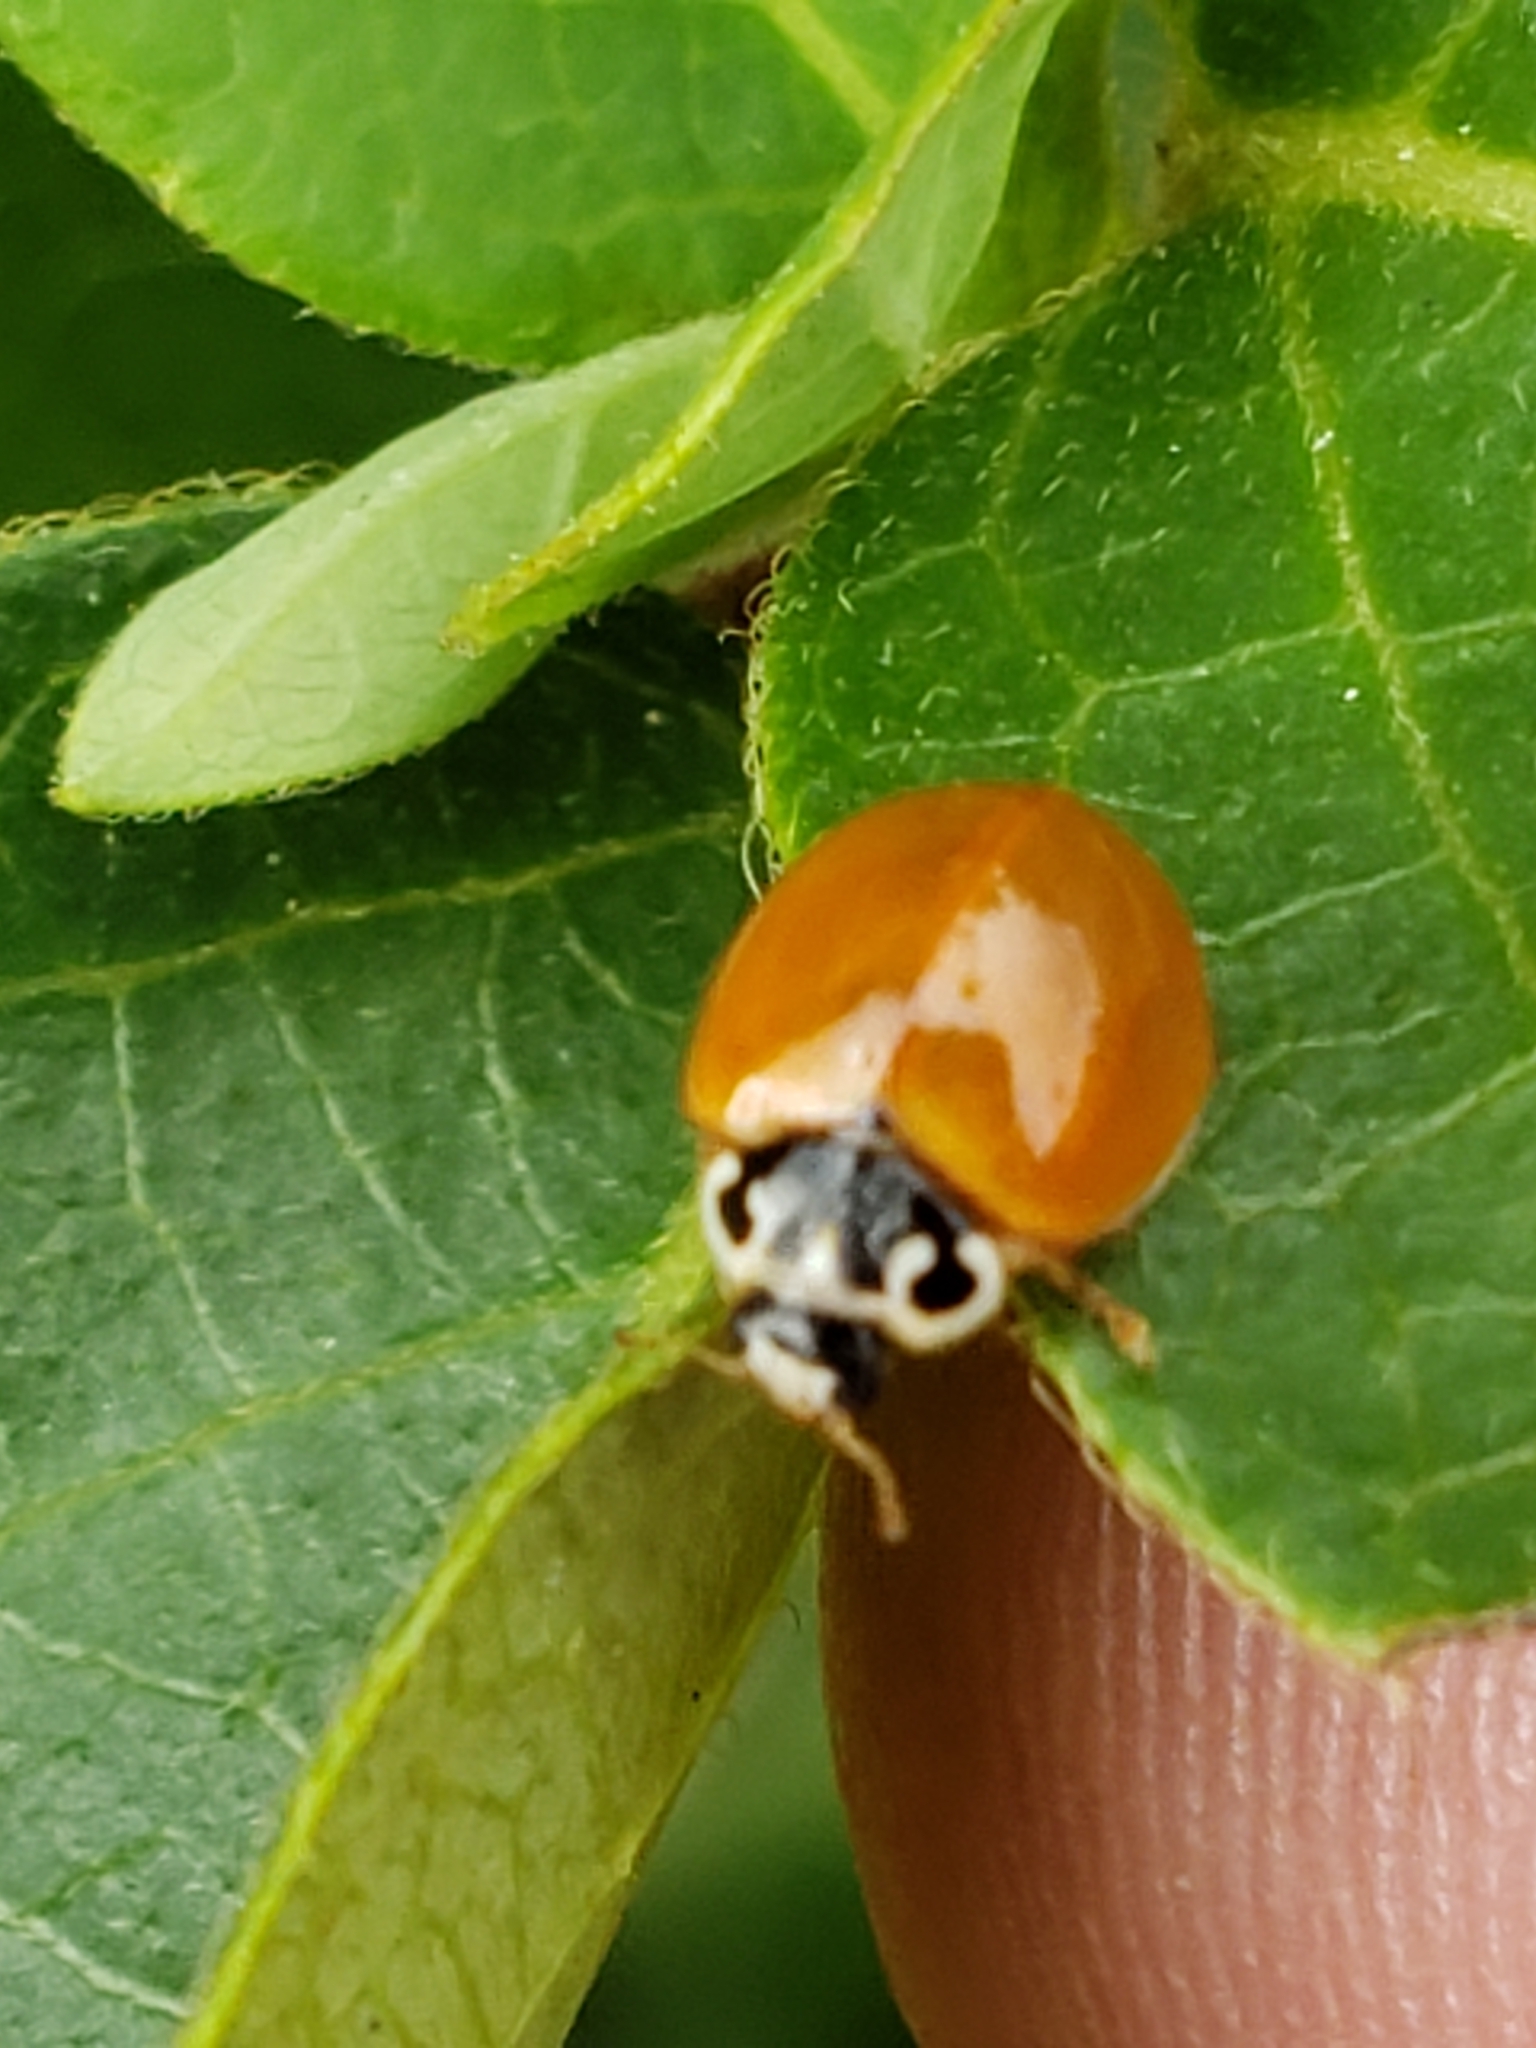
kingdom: Animalia
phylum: Arthropoda
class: Insecta
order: Coleoptera
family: Coccinellidae
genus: Cycloneda
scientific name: Cycloneda munda
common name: Polished lady beetle
